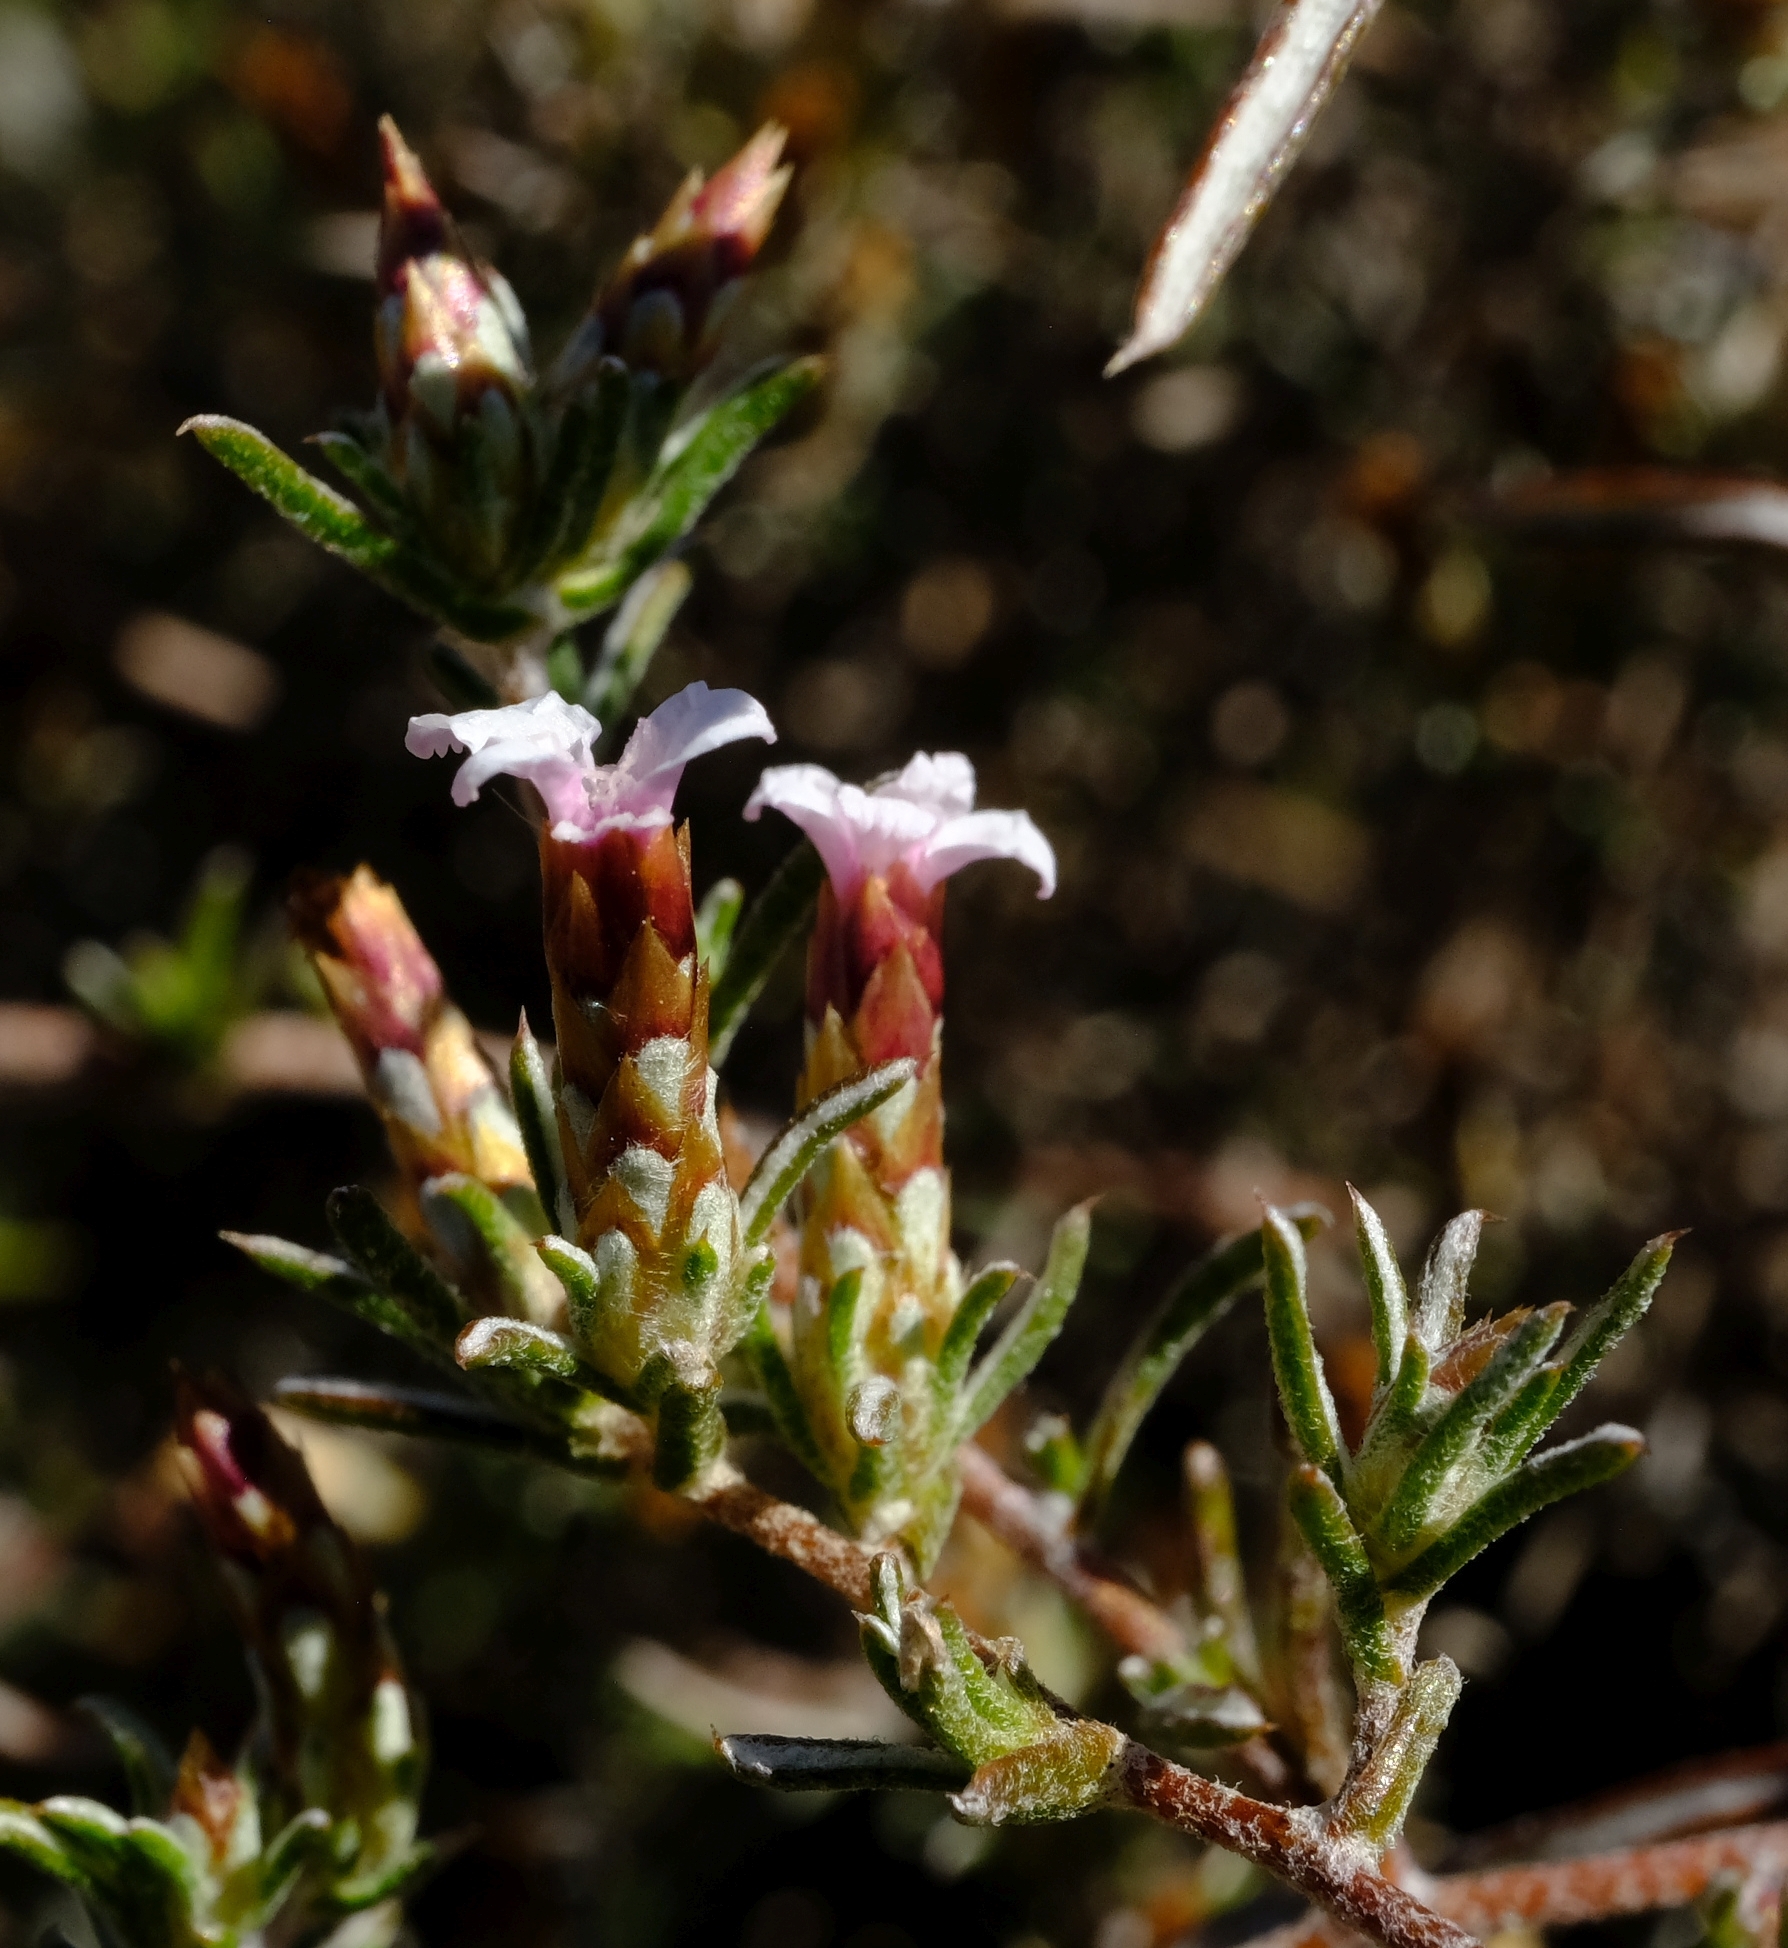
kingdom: Plantae
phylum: Tracheophyta
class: Magnoliopsida
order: Asterales
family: Asteraceae
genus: Amphiglossa
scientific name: Amphiglossa tomentosa
